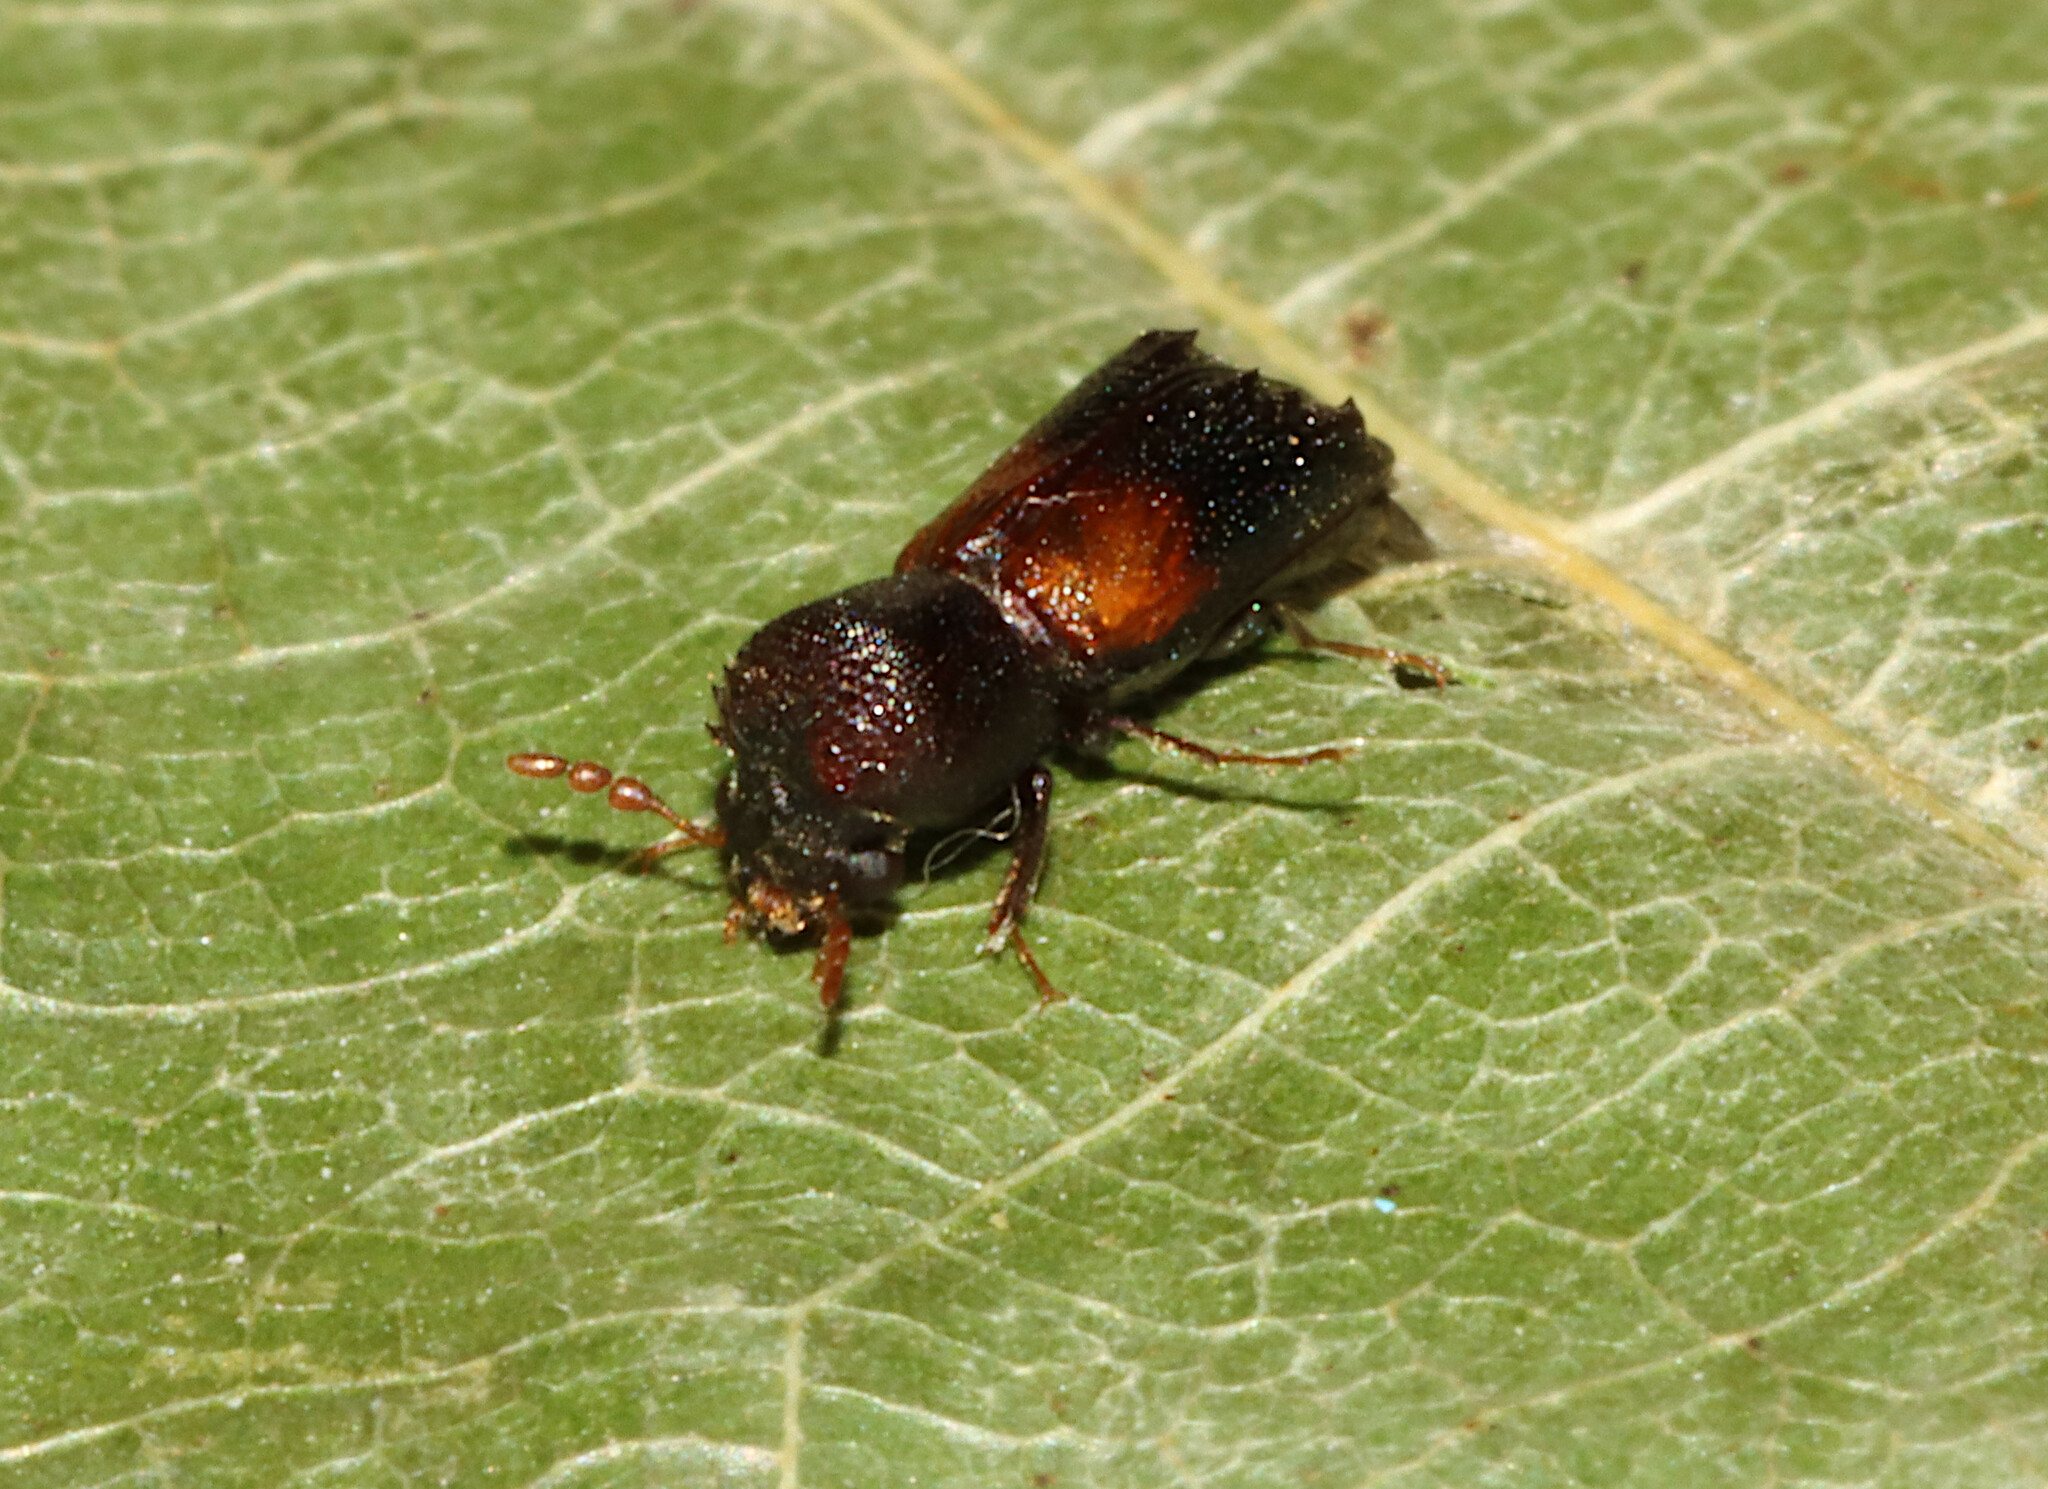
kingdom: Animalia
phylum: Arthropoda
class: Insecta
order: Coleoptera
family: Bostrichidae
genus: Xylobiops
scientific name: Xylobiops basilaris
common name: Red-shouldered bostrichid
